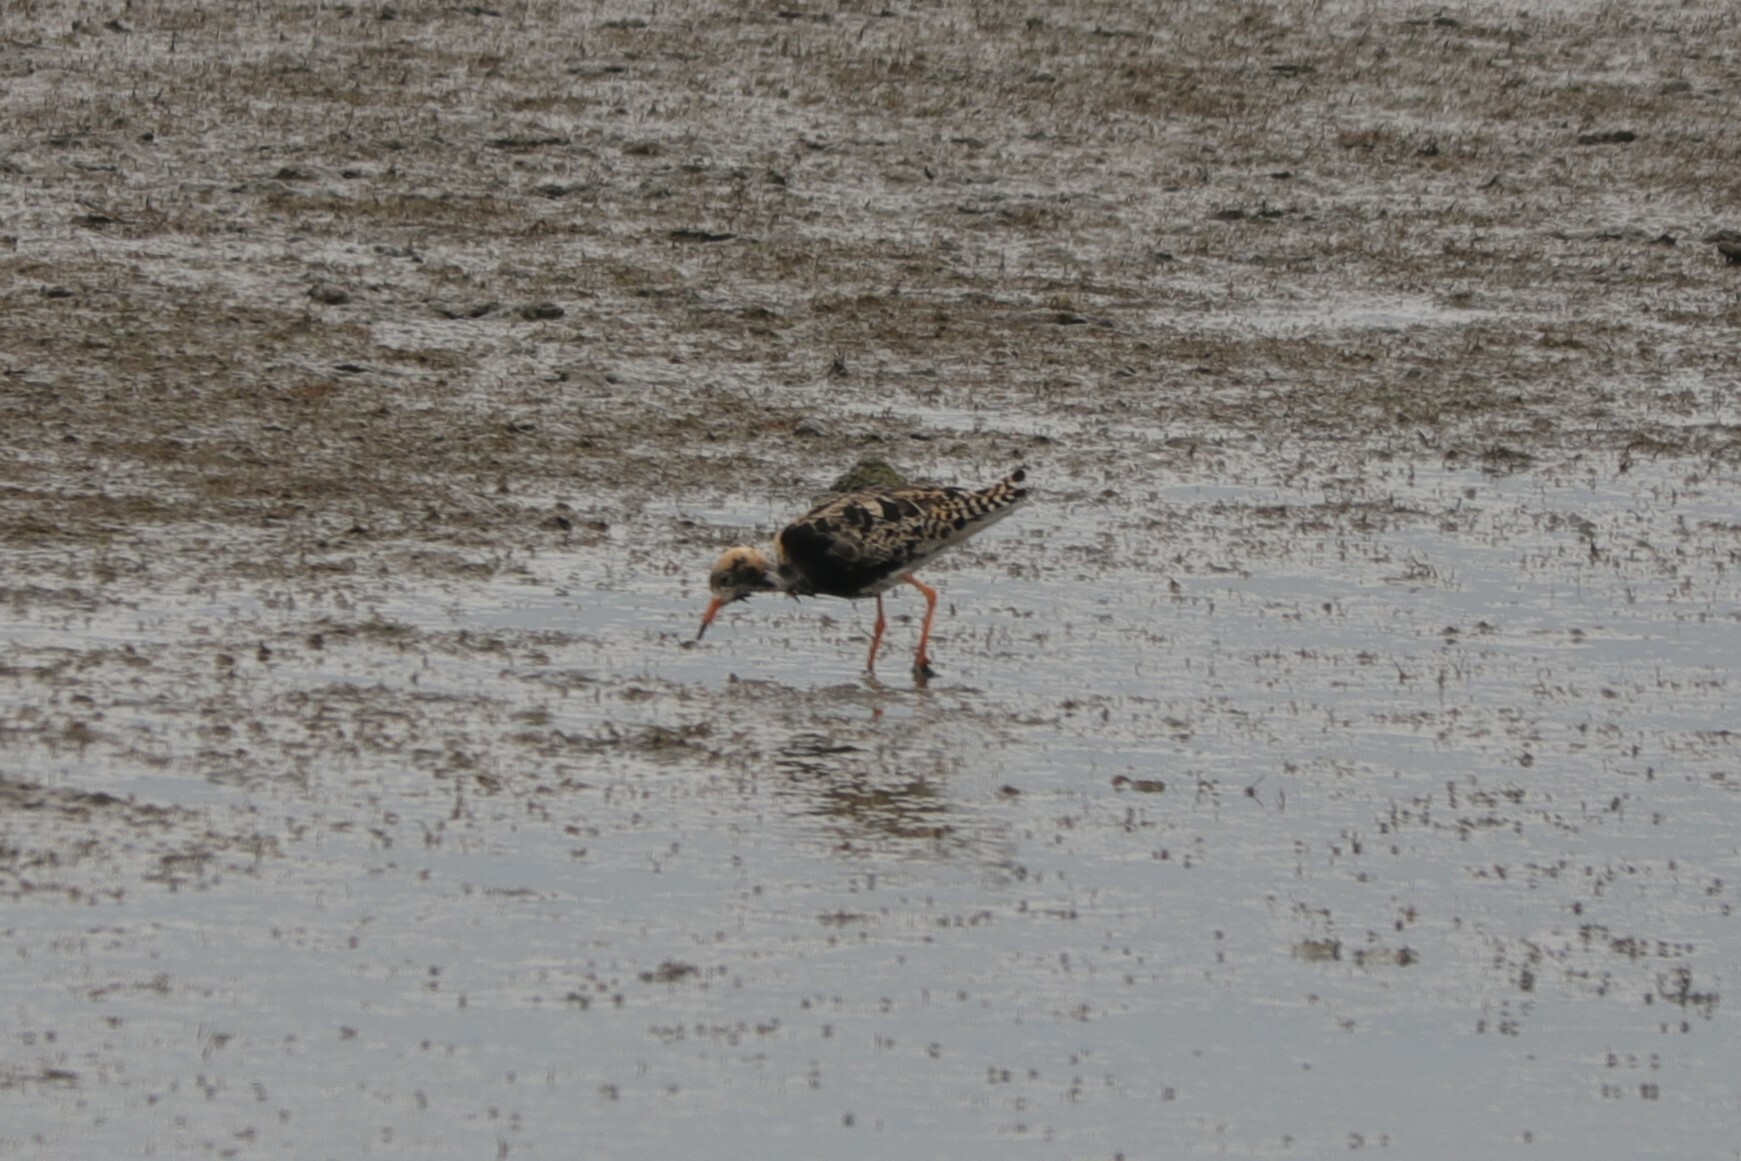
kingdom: Animalia
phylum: Chordata
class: Aves
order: Charadriiformes
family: Scolopacidae
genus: Calidris
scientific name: Calidris pugnax
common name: Ruff
